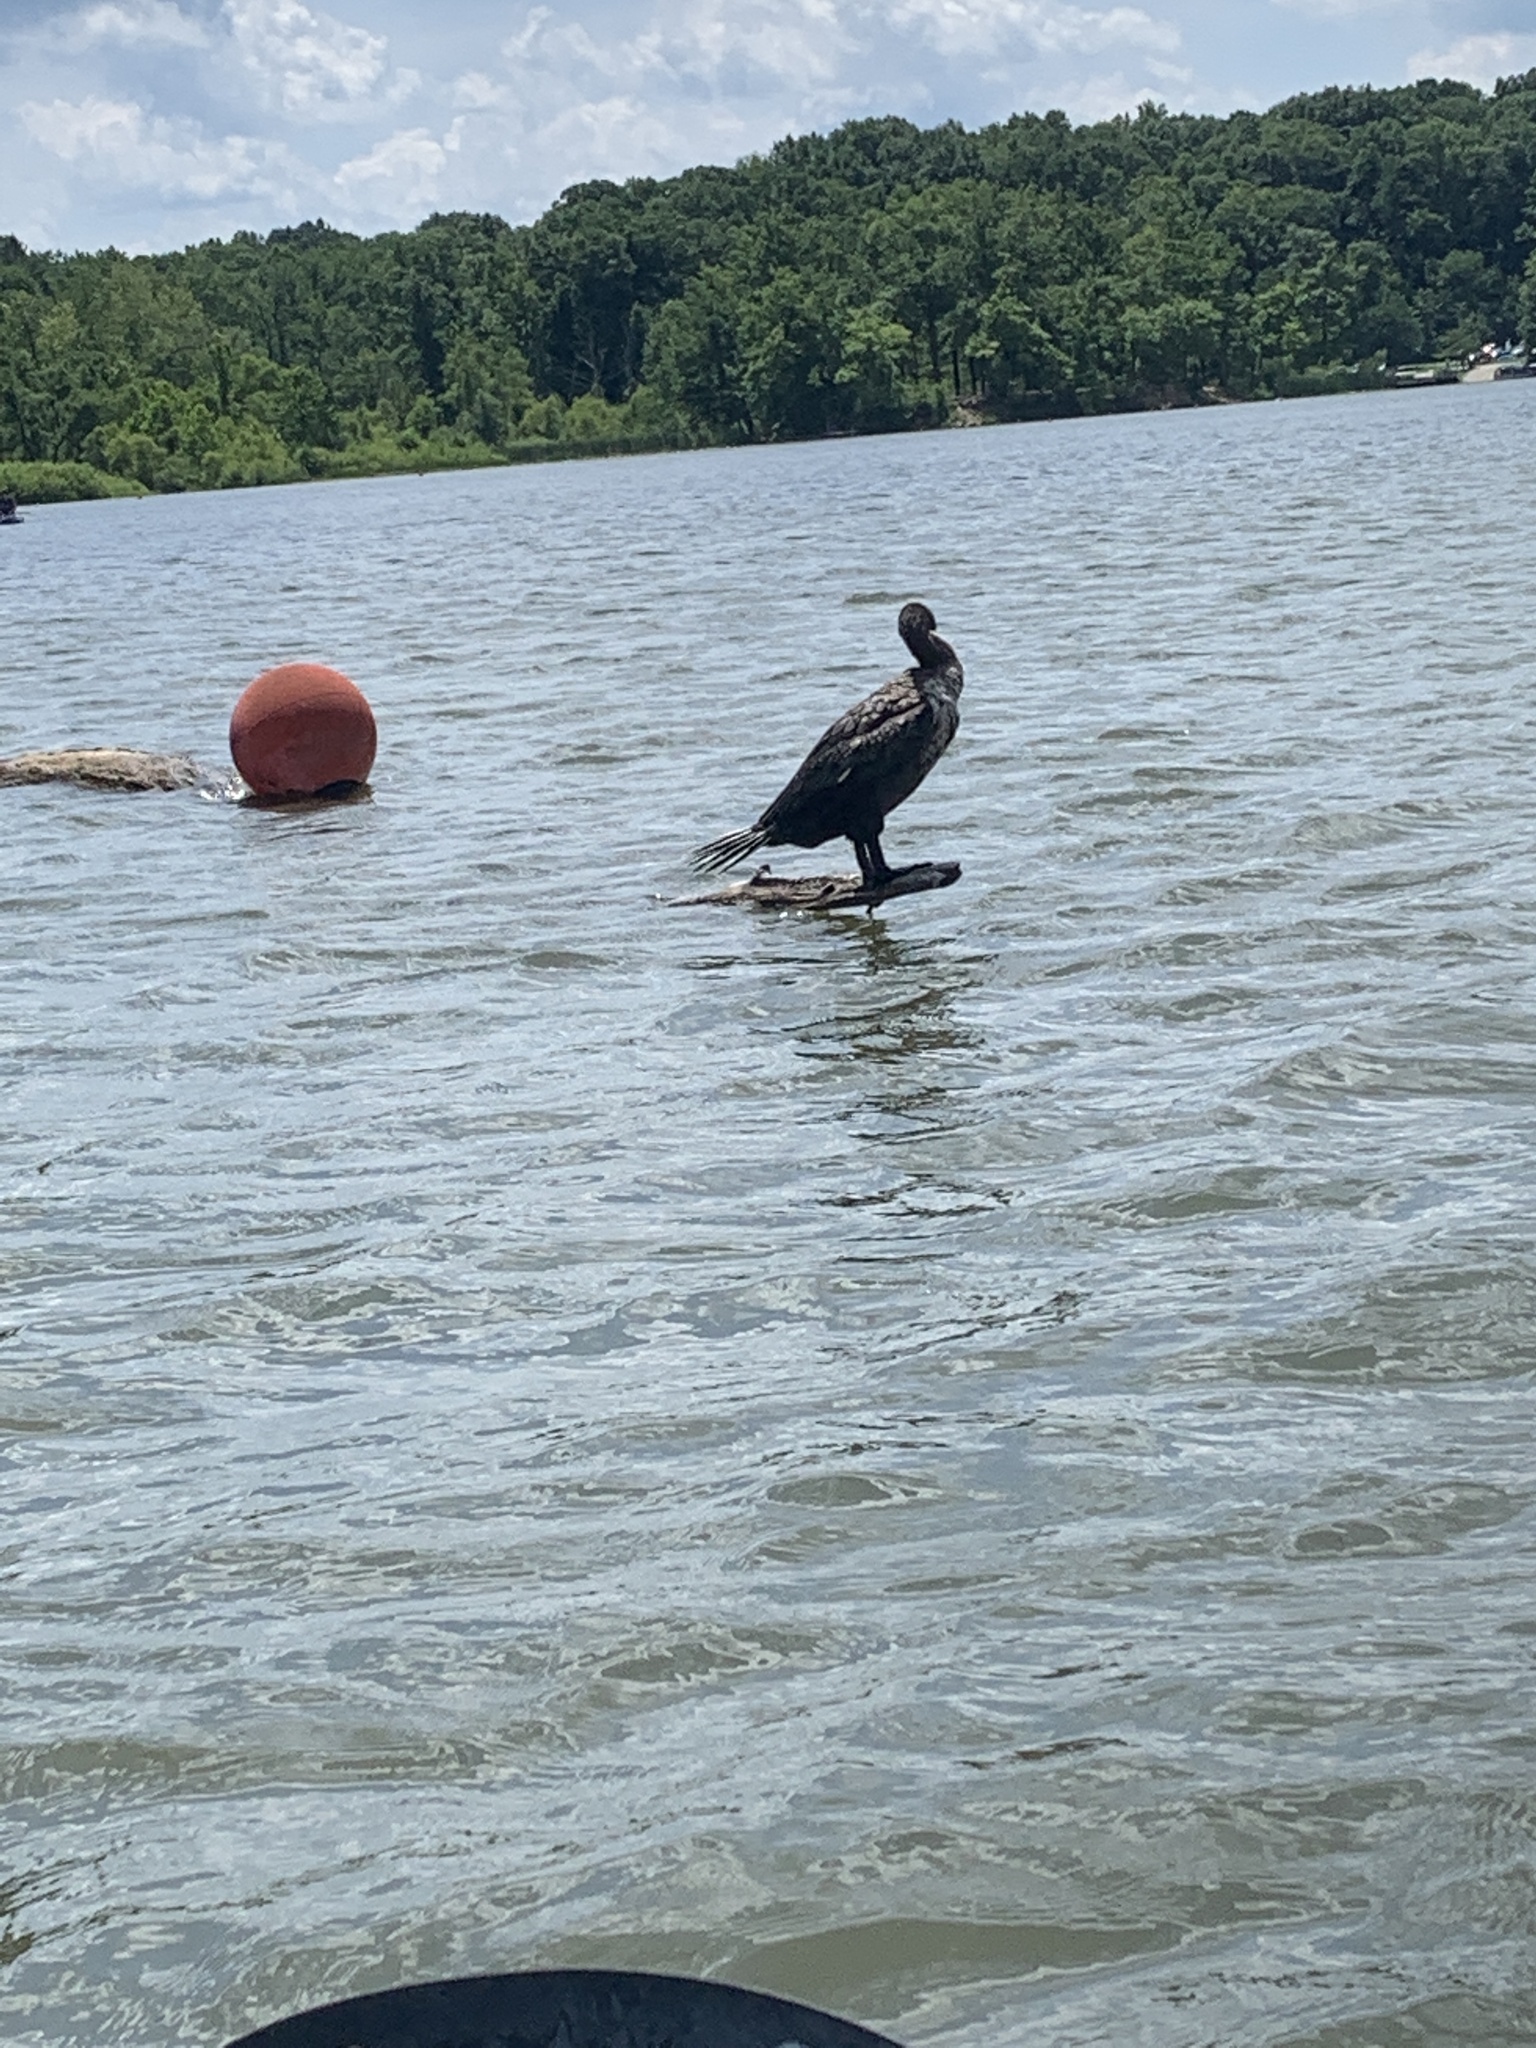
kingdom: Animalia
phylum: Chordata
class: Aves
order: Suliformes
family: Phalacrocoracidae
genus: Phalacrocorax
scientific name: Phalacrocorax auritus
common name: Double-crested cormorant
